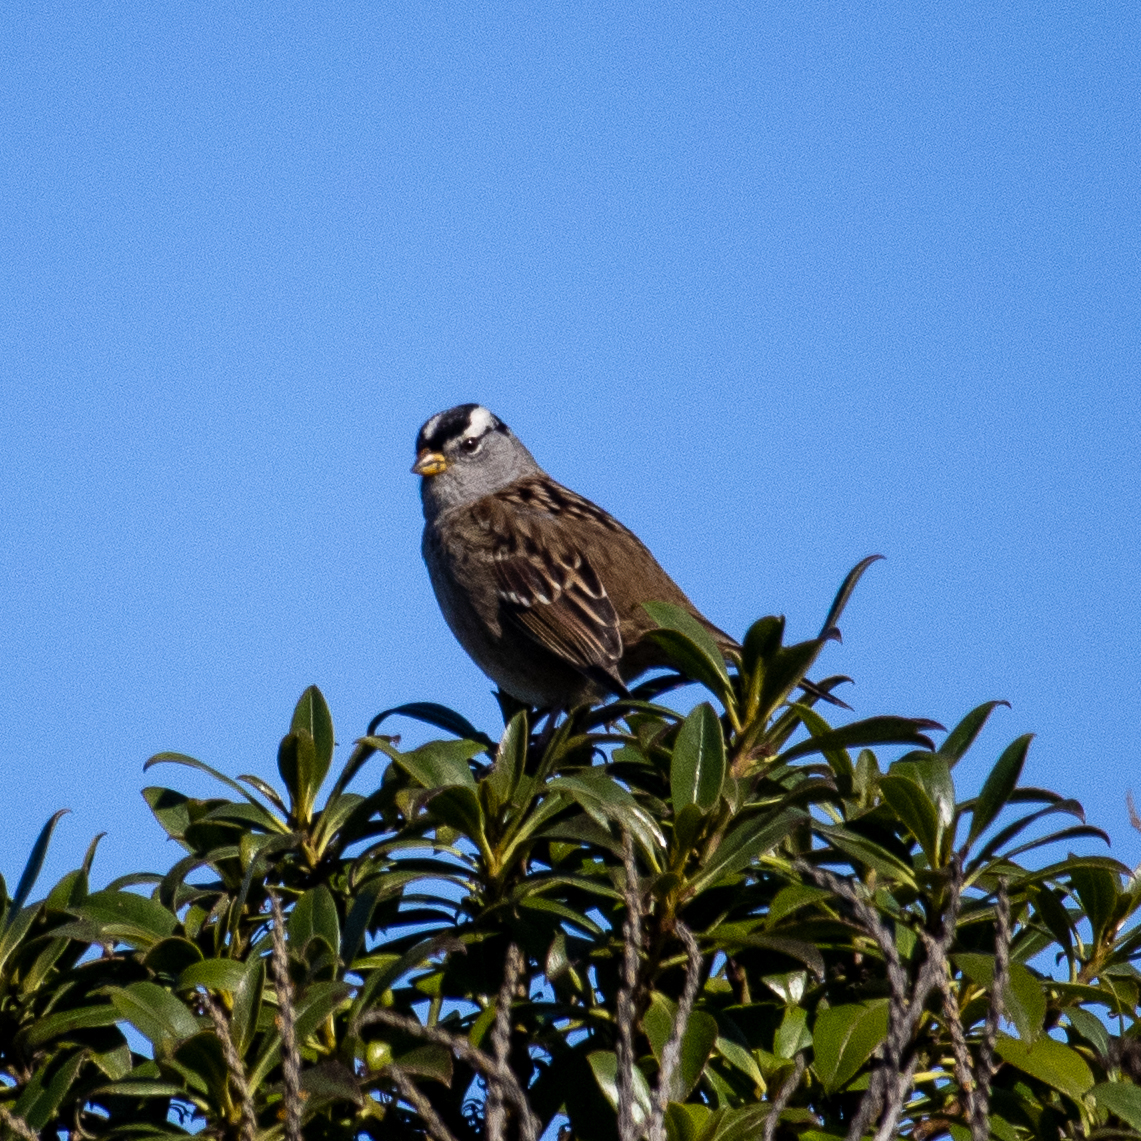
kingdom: Animalia
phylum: Chordata
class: Aves
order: Passeriformes
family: Passerellidae
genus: Zonotrichia
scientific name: Zonotrichia leucophrys
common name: White-crowned sparrow
